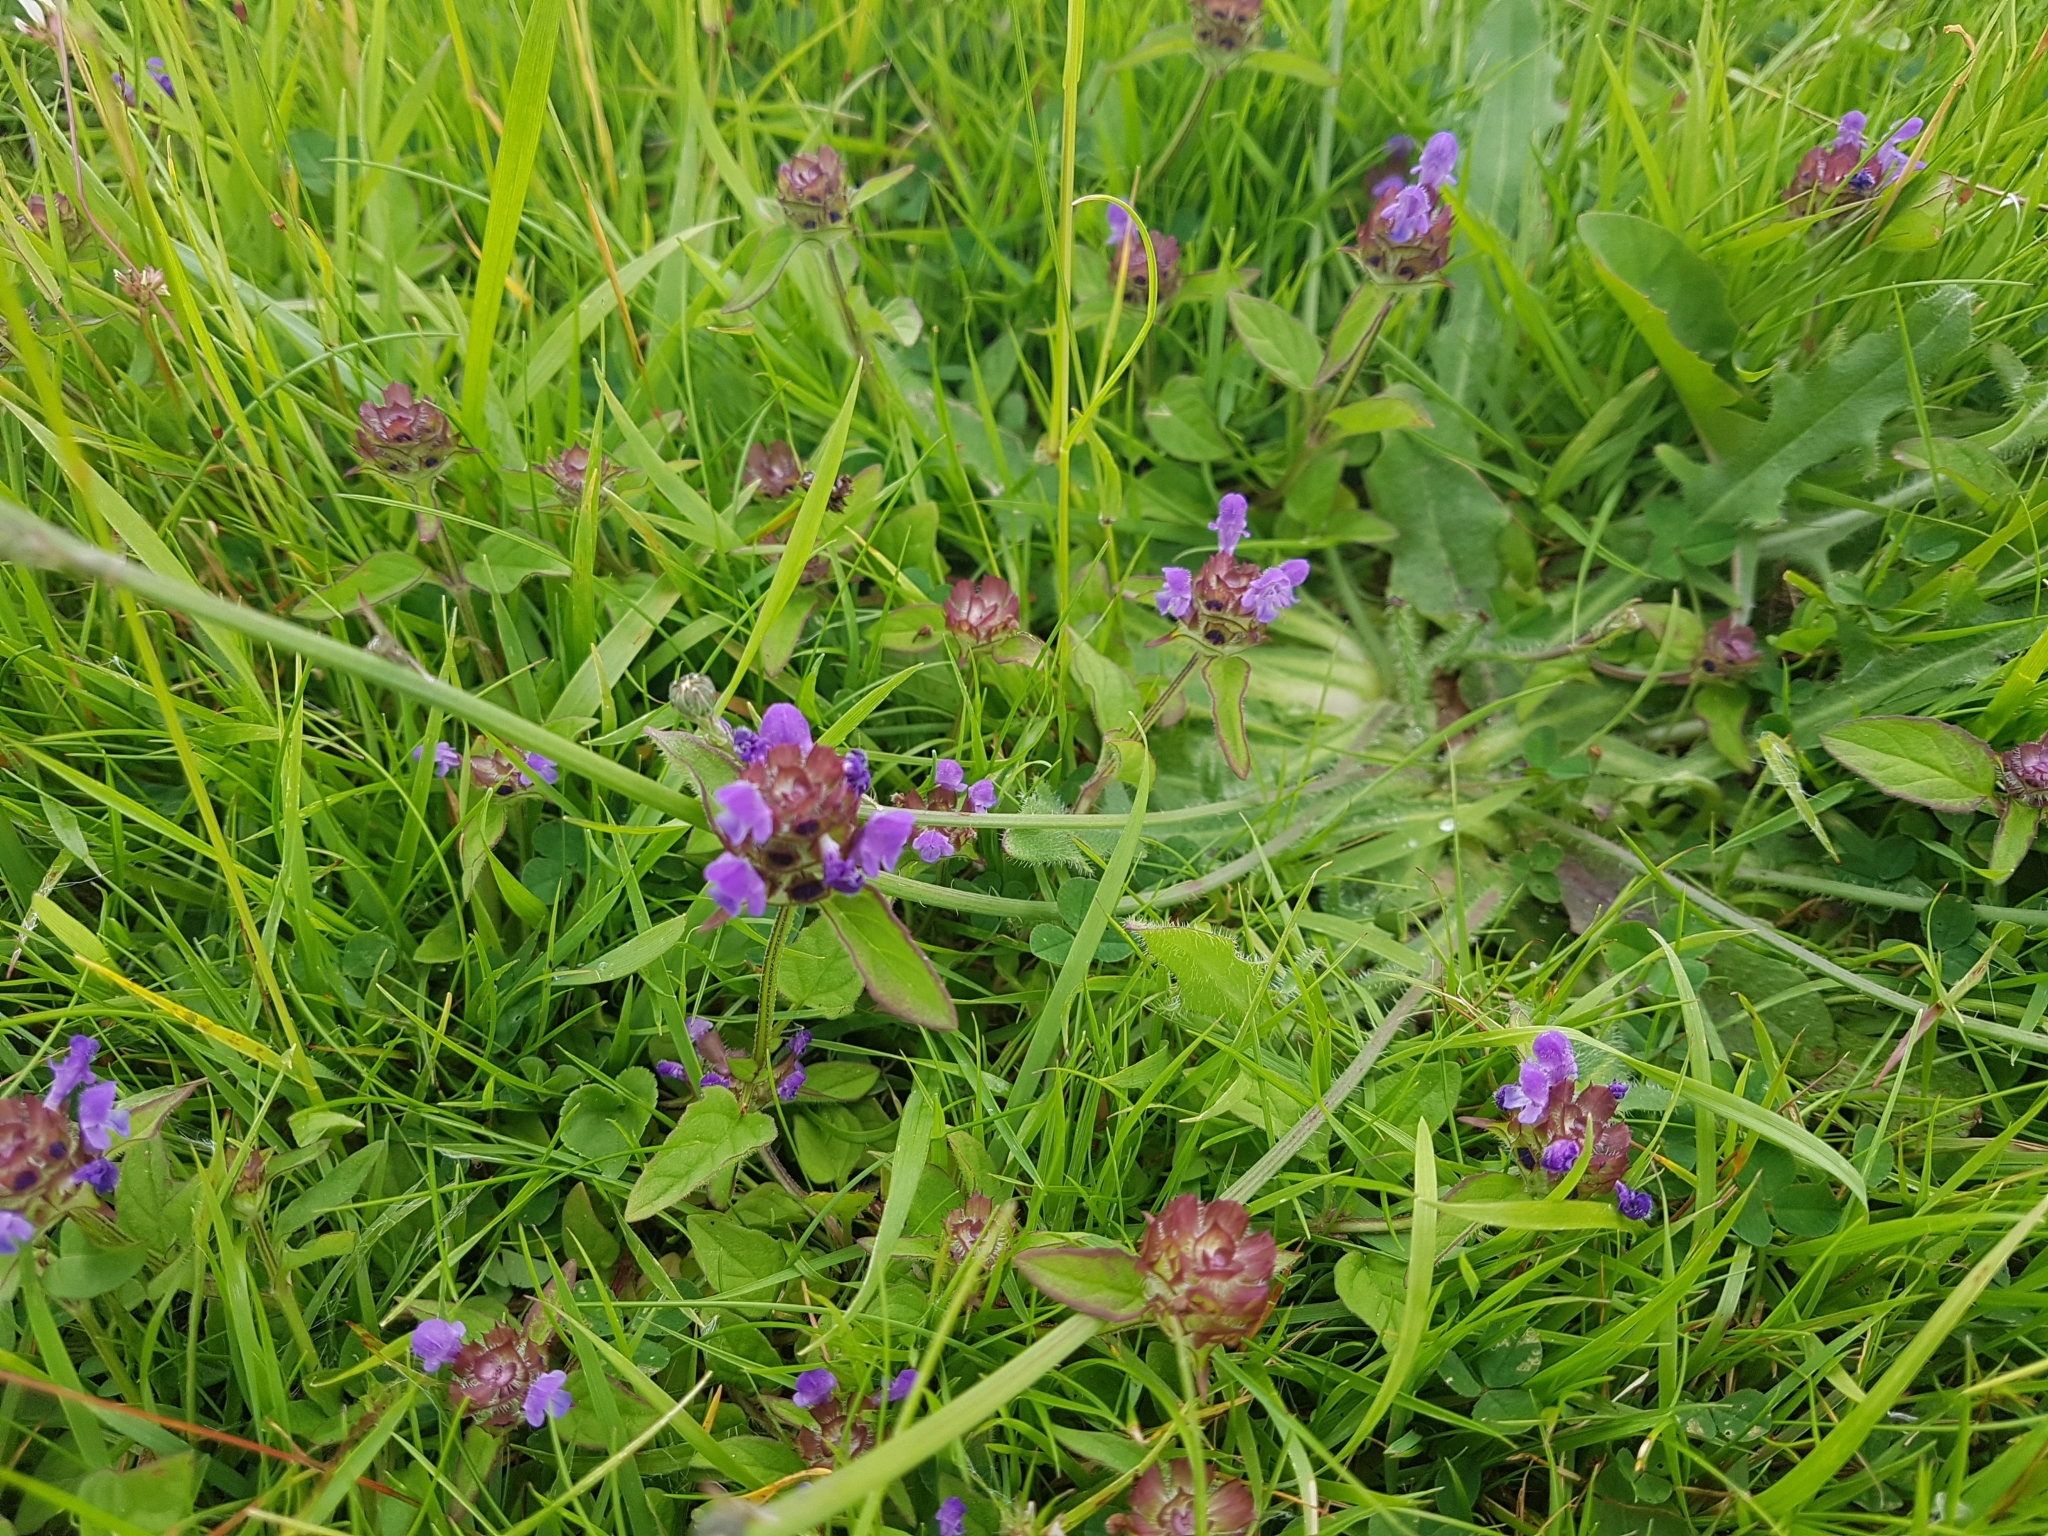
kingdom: Plantae
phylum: Tracheophyta
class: Magnoliopsida
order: Lamiales
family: Lamiaceae
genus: Prunella
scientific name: Prunella vulgaris
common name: Heal-all
